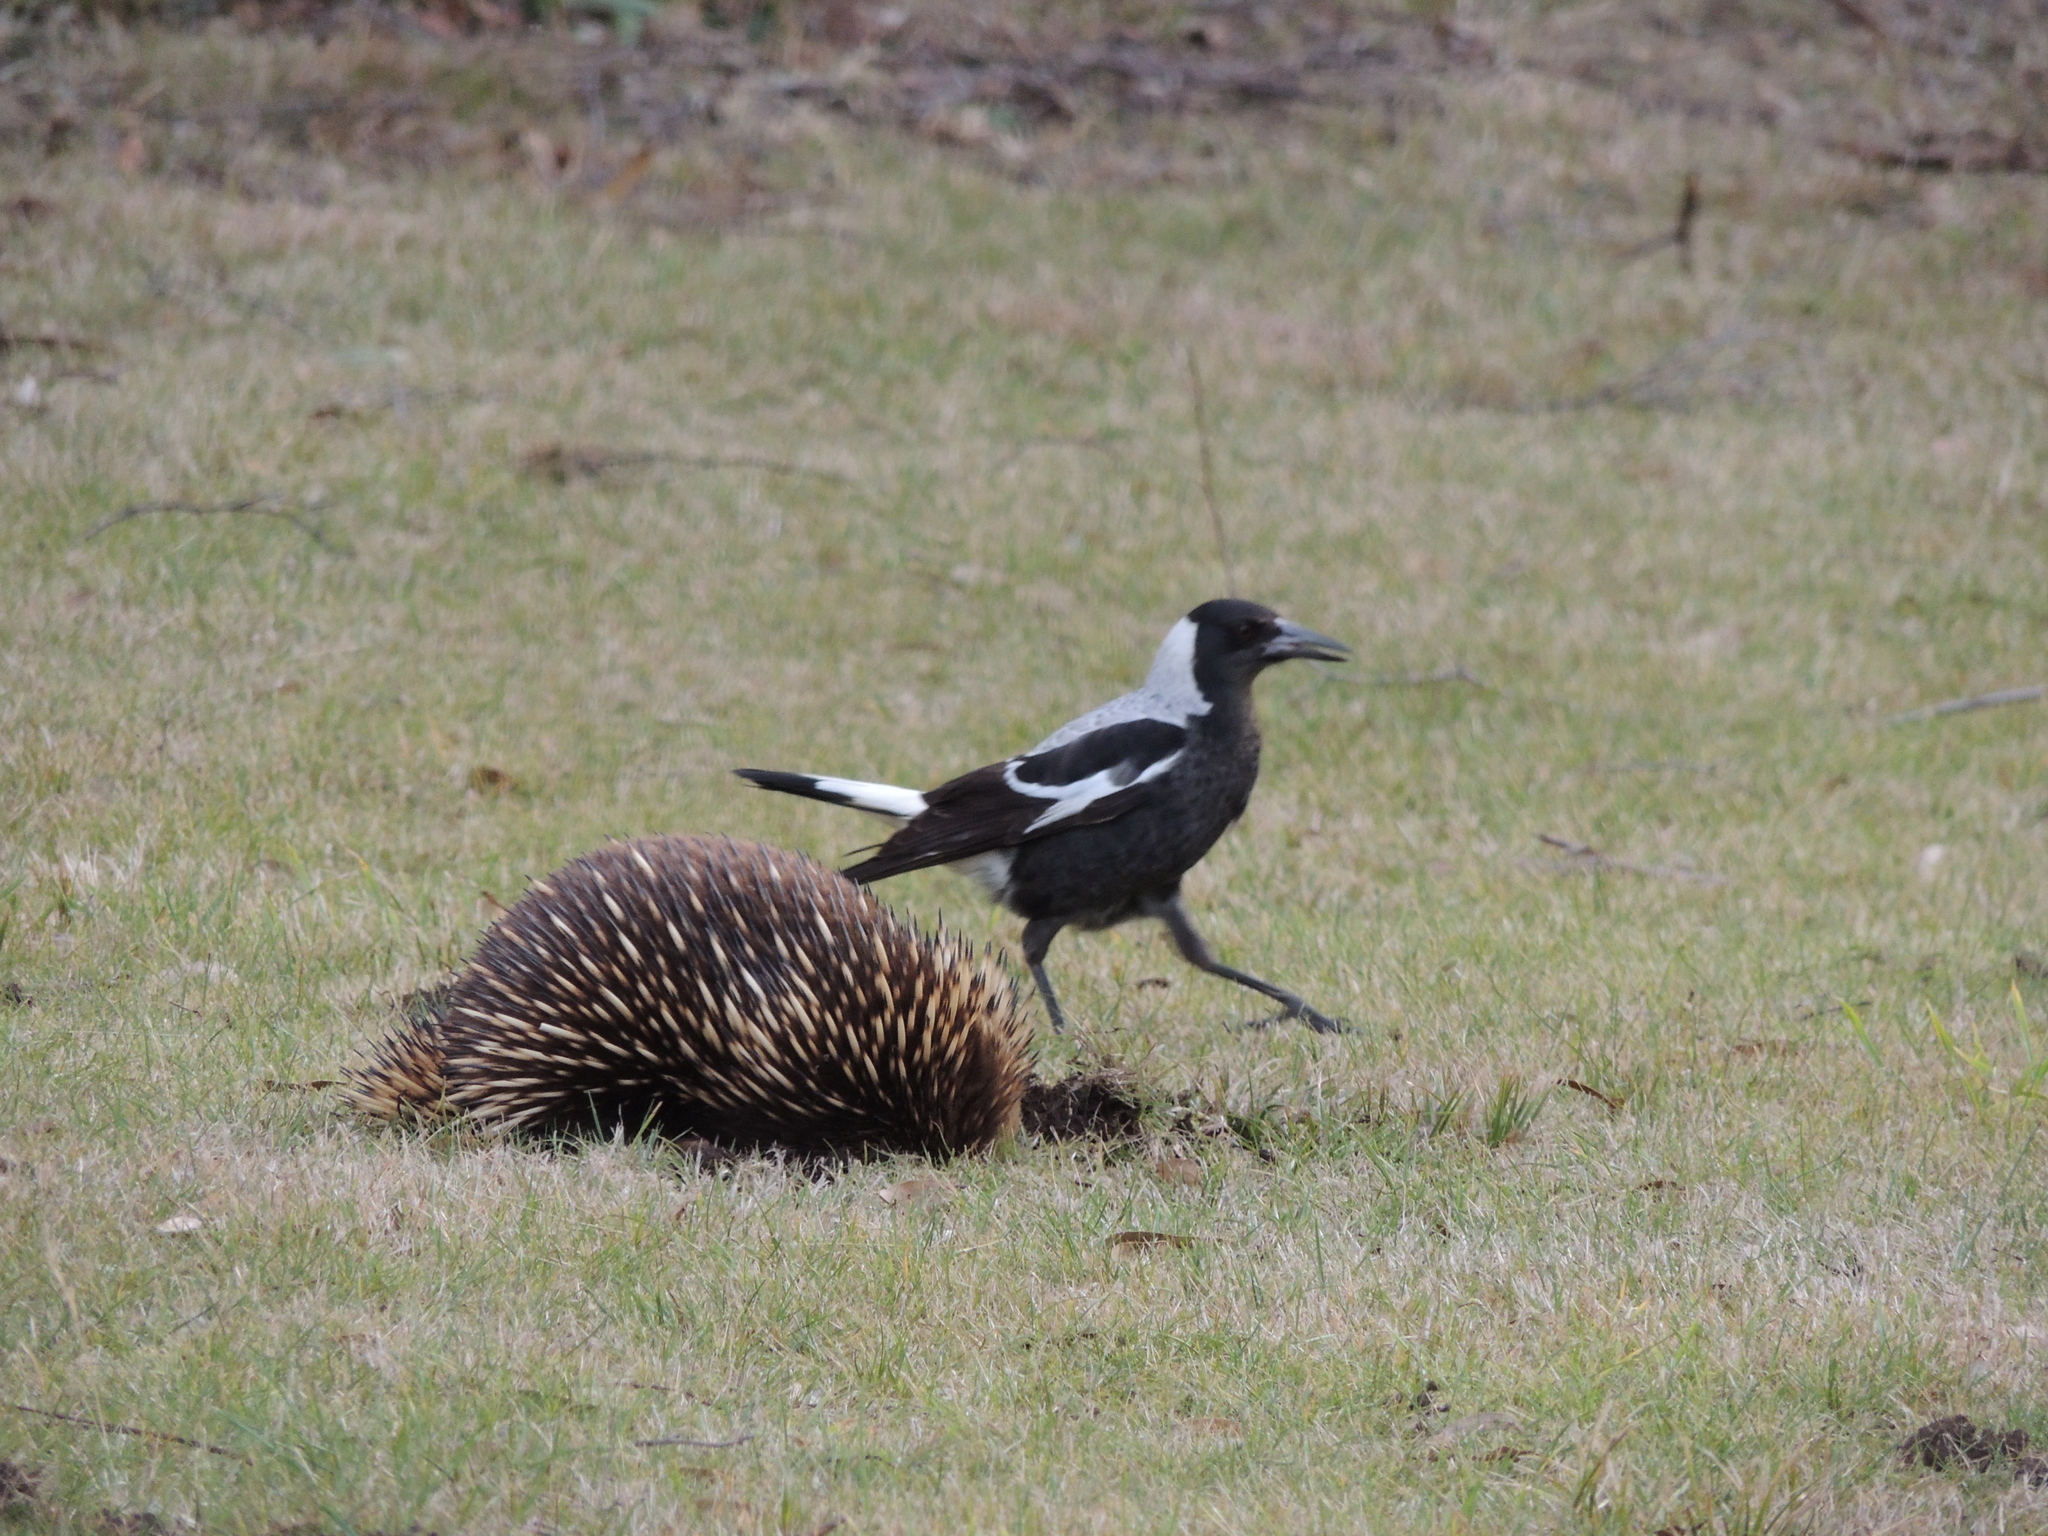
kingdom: Animalia
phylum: Chordata
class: Mammalia
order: Monotremata
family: Tachyglossidae
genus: Tachyglossus
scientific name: Tachyglossus aculeatus
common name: Short-beaked echidna
